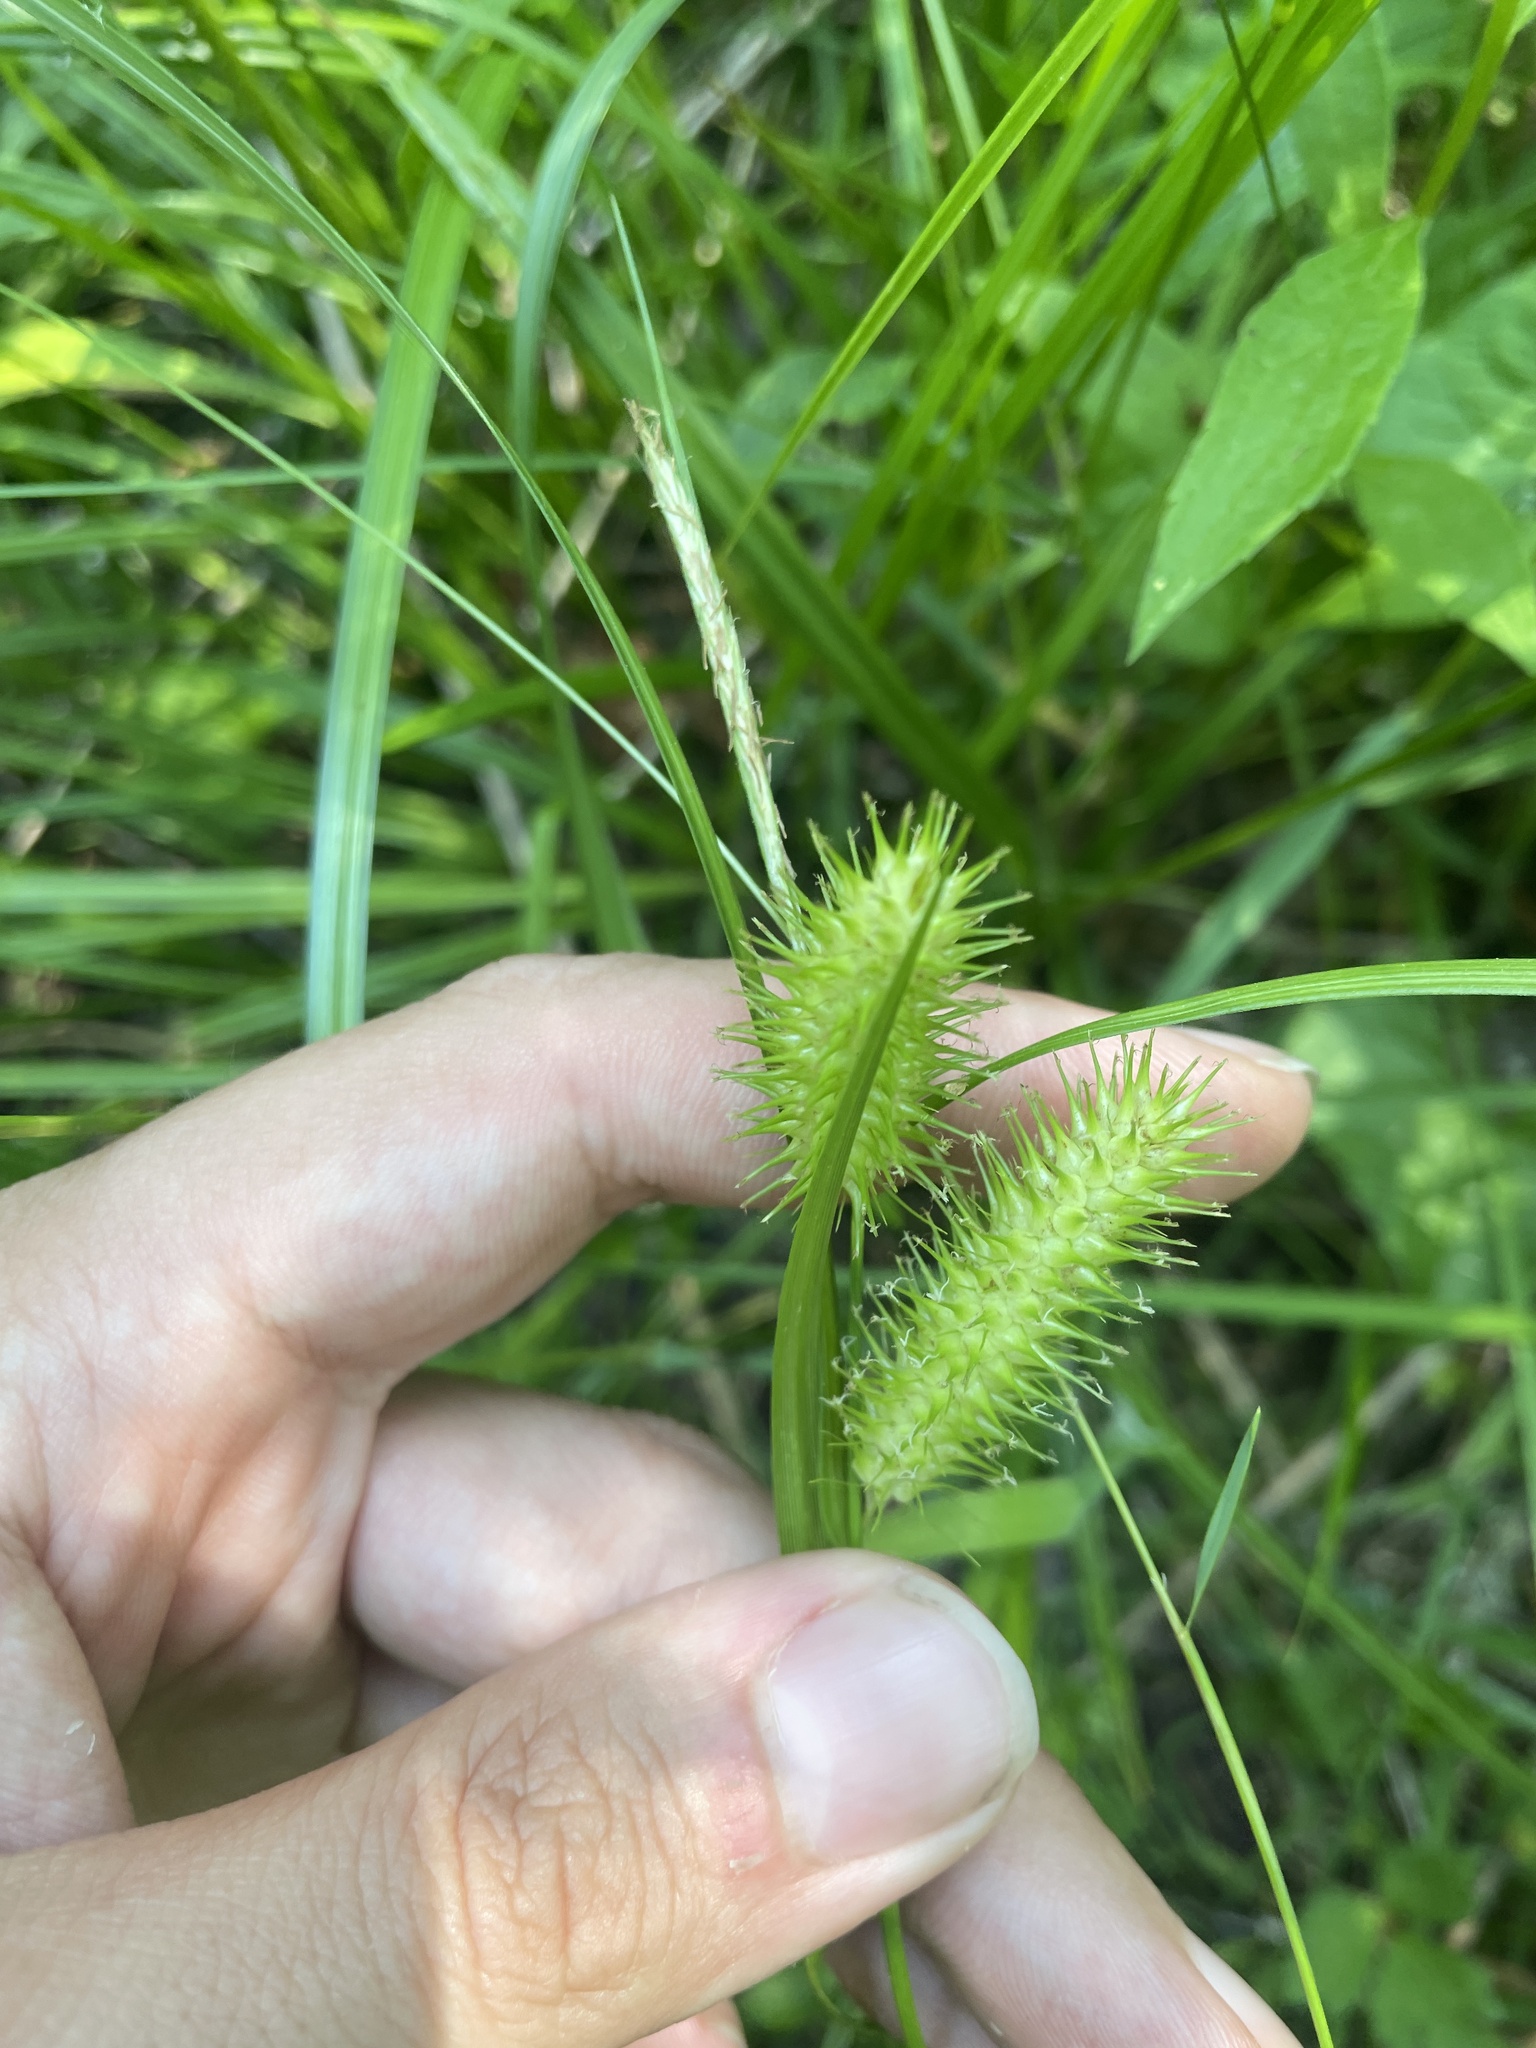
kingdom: Plantae
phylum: Tracheophyta
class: Liliopsida
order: Poales
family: Cyperaceae
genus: Carex
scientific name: Carex lurida
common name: Sallow sedge
